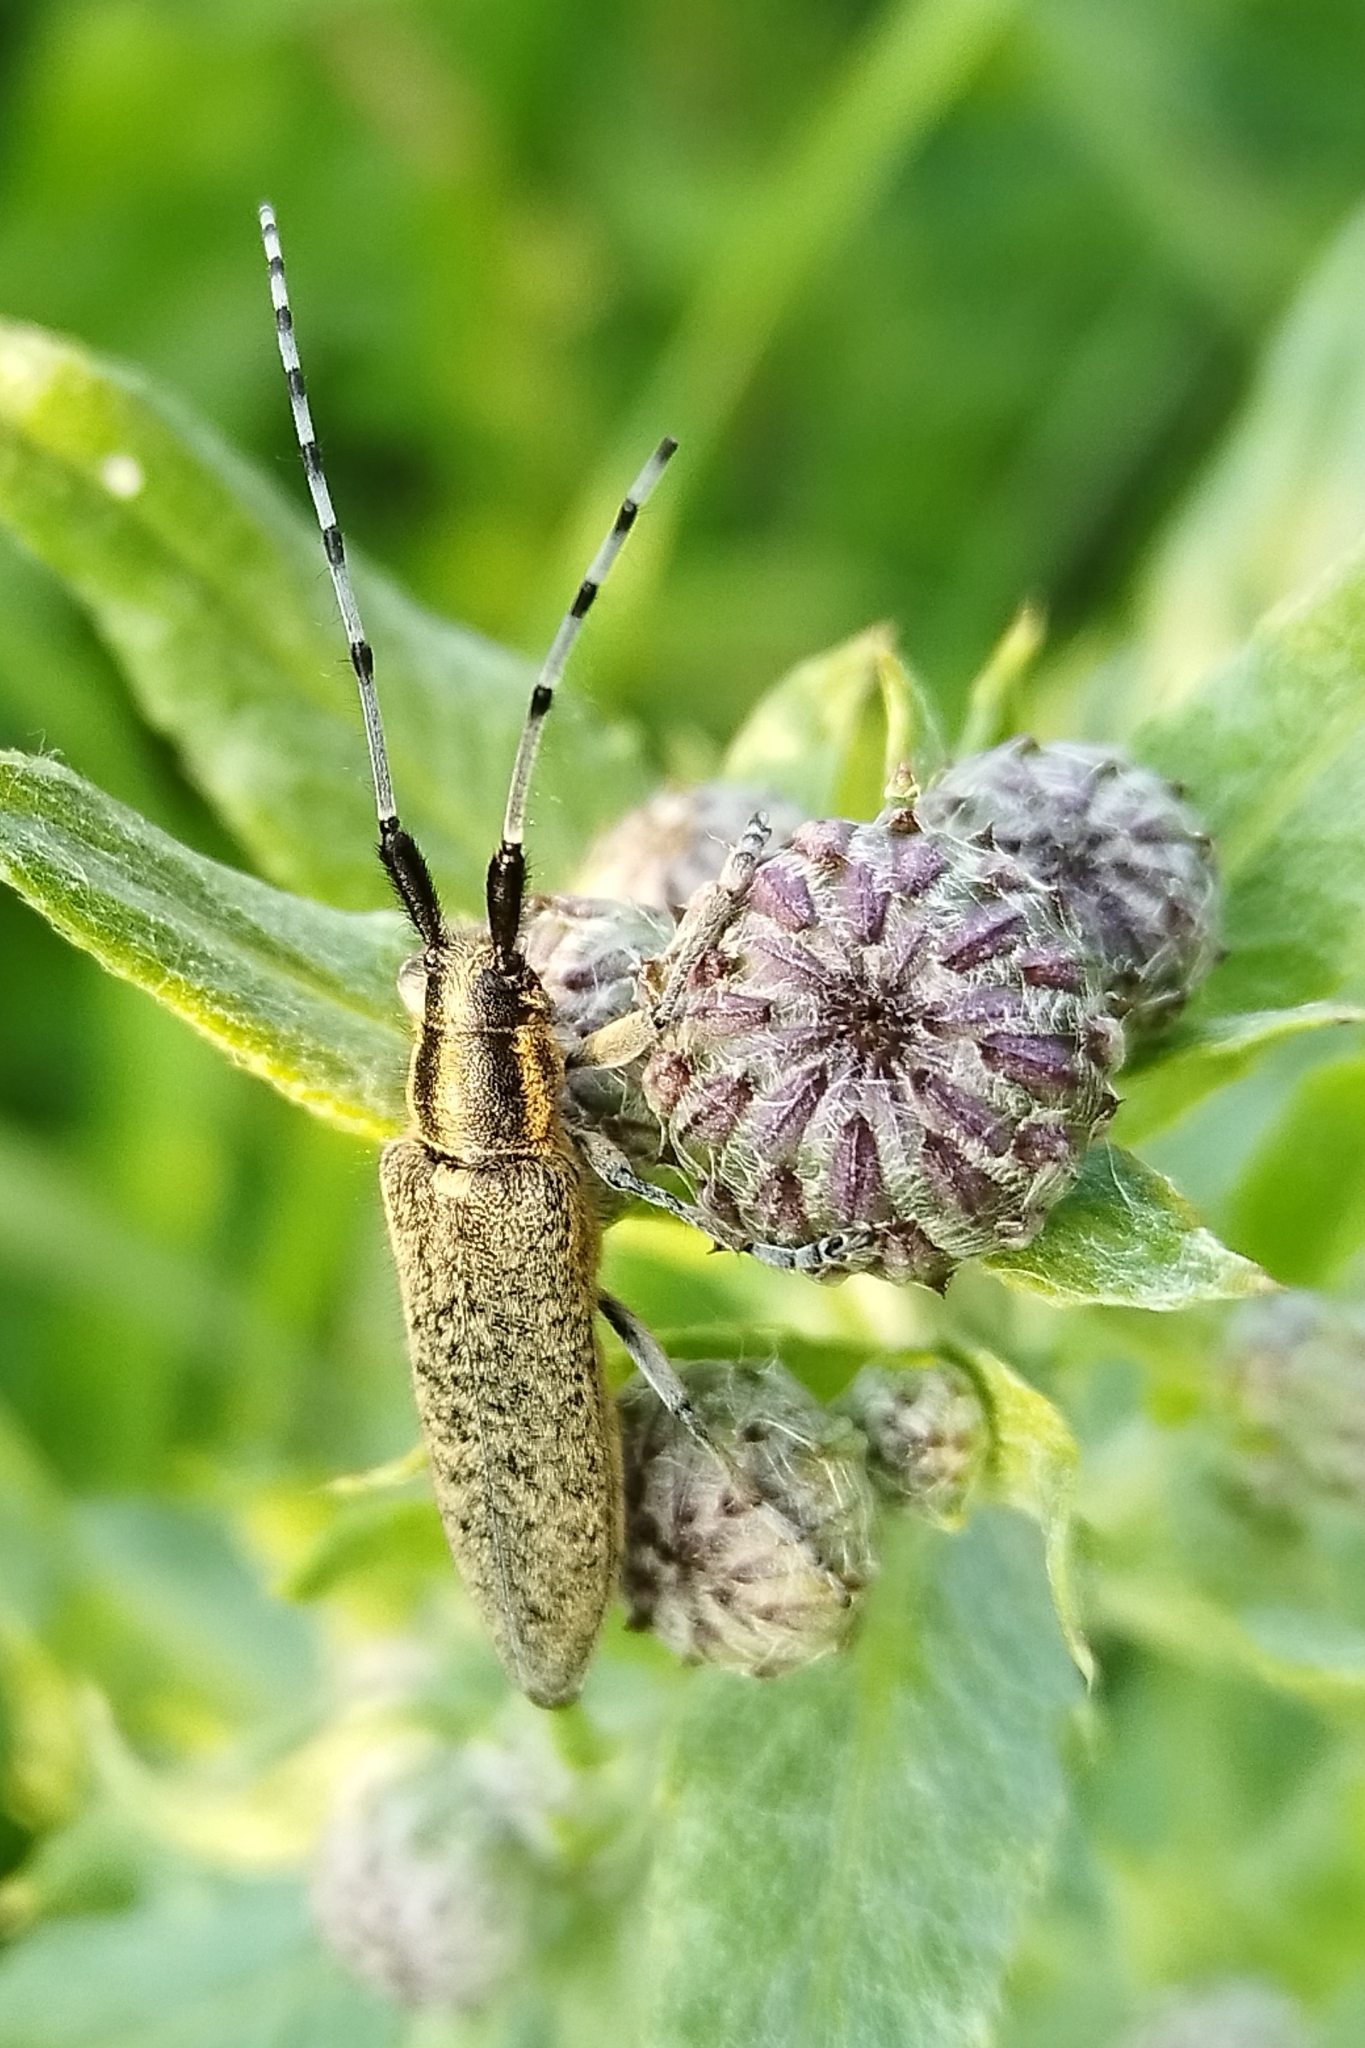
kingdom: Animalia
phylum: Arthropoda
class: Insecta
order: Coleoptera
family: Cerambycidae
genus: Agapanthia
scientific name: Agapanthia villosoviridescens
